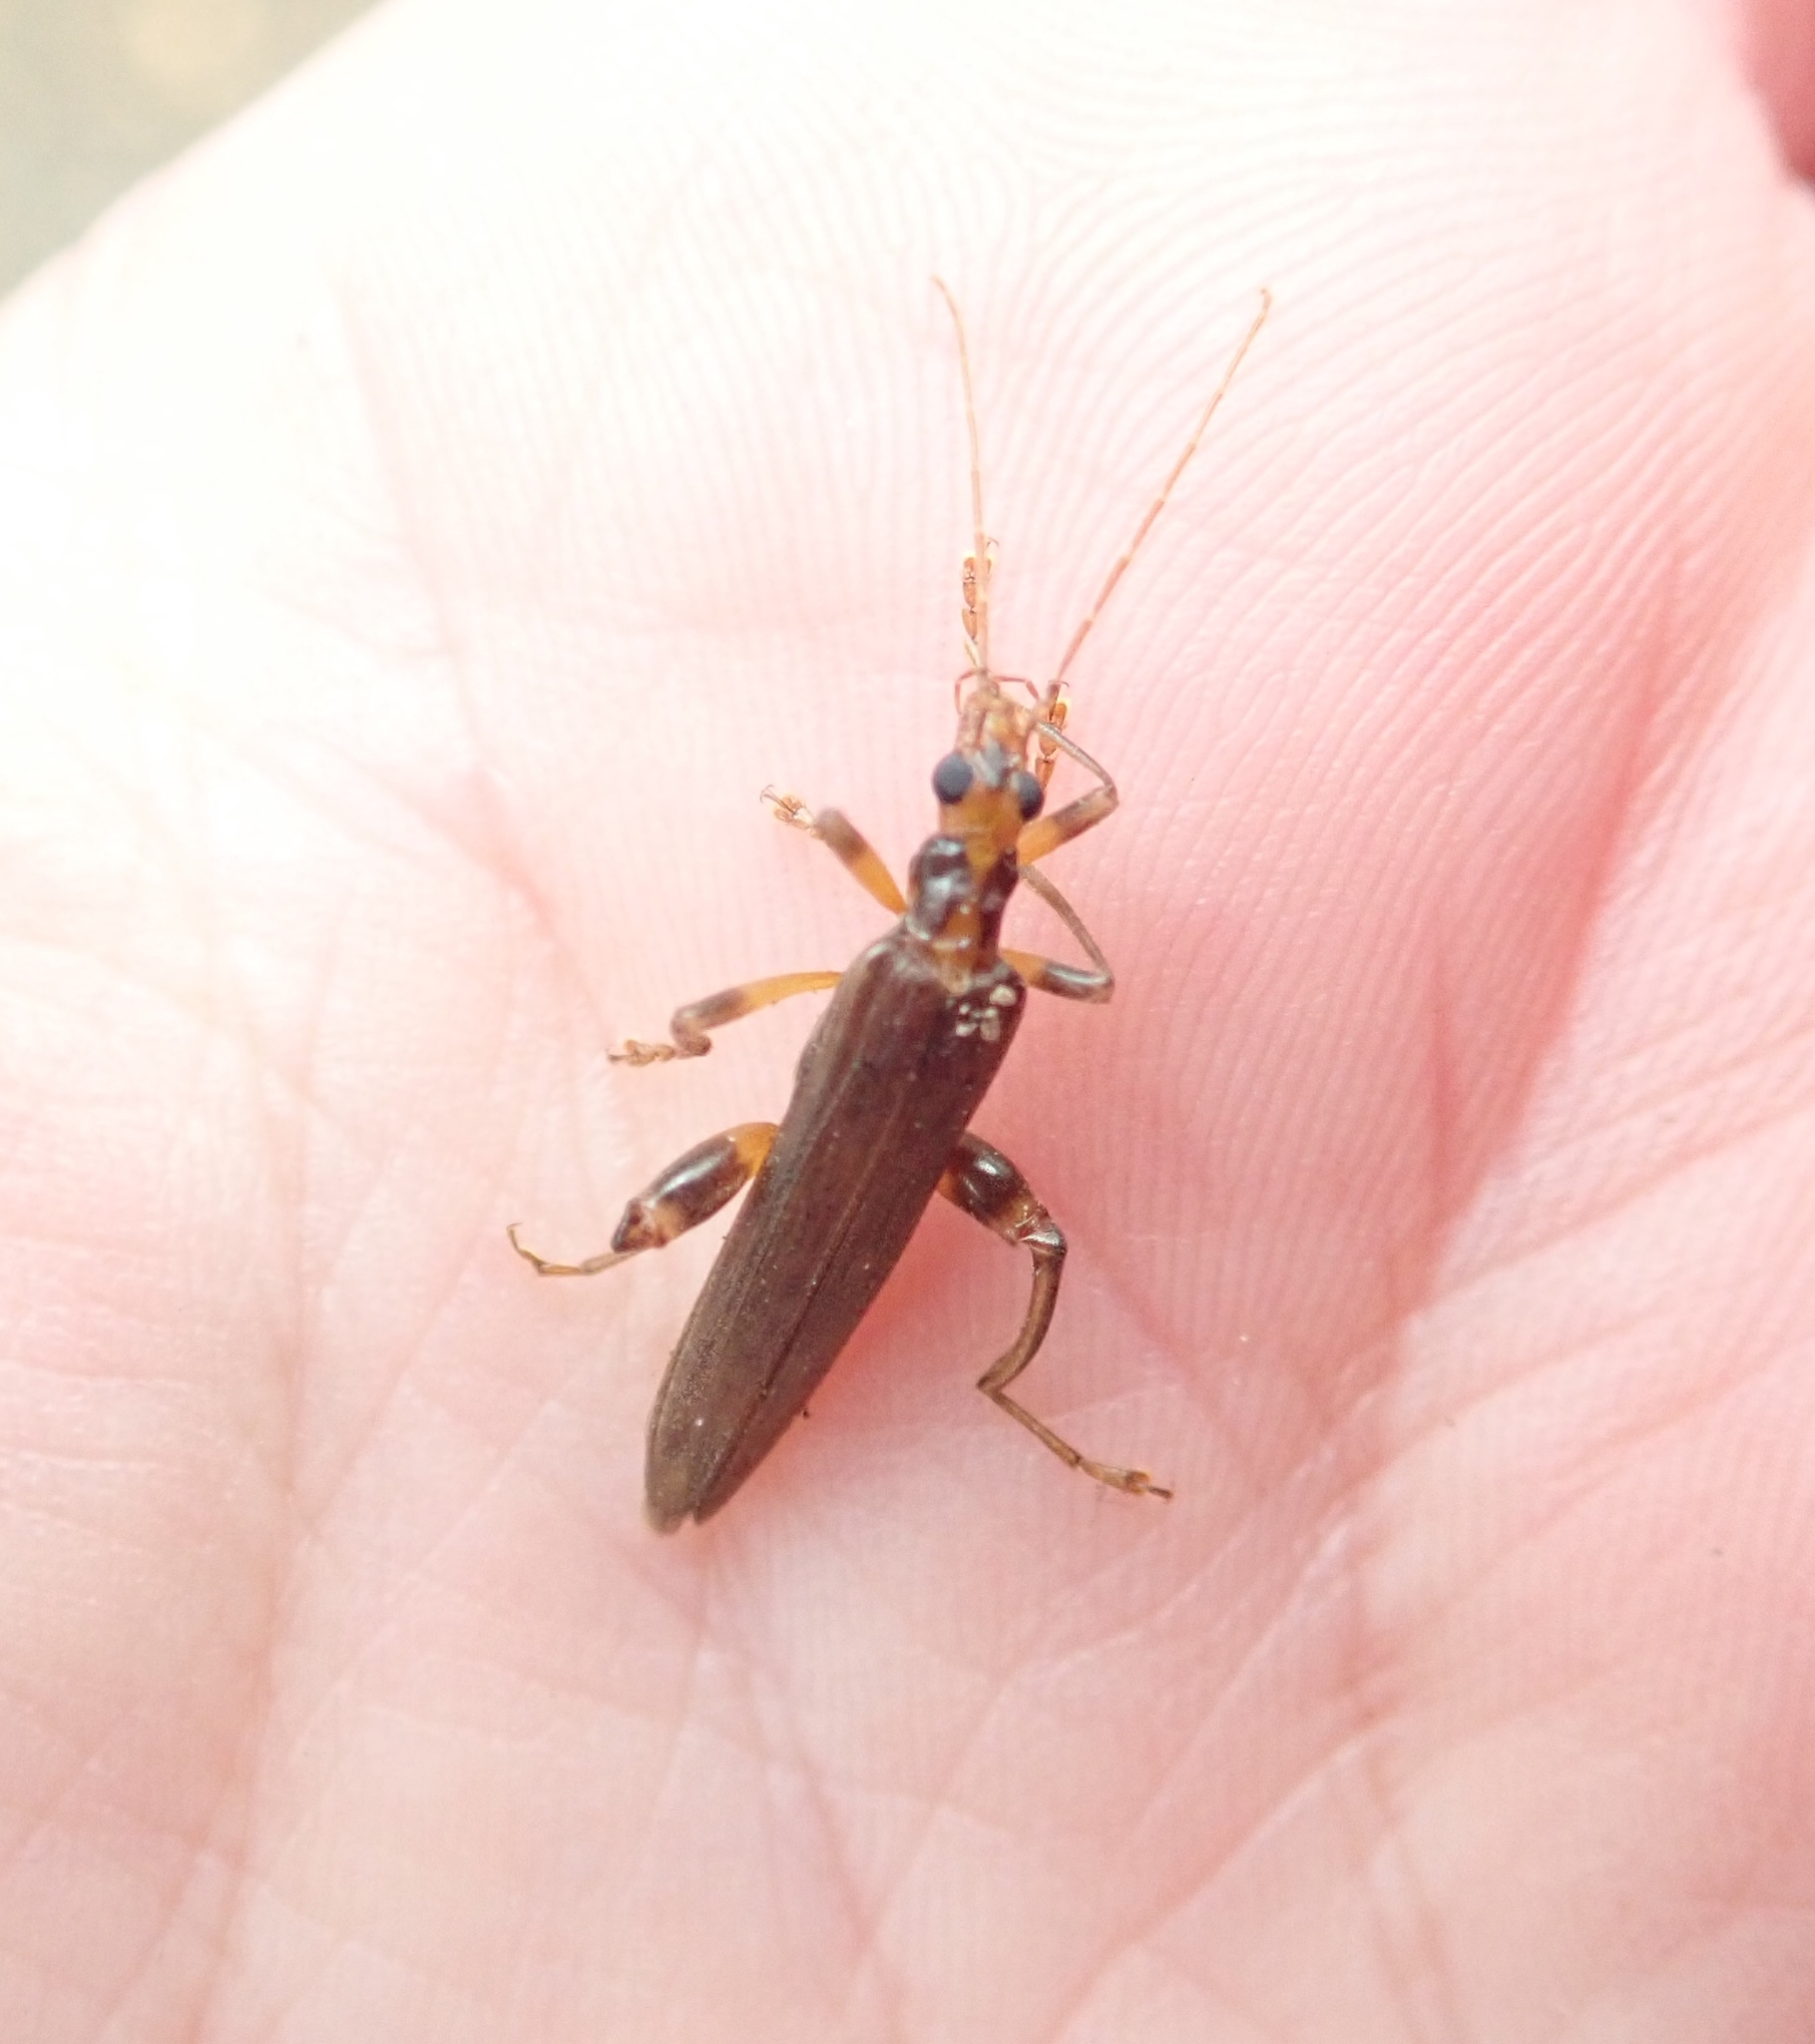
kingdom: Animalia
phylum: Arthropoda
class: Insecta
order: Coleoptera
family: Oedemeridae
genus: Oedemera
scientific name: Oedemera femoralis
